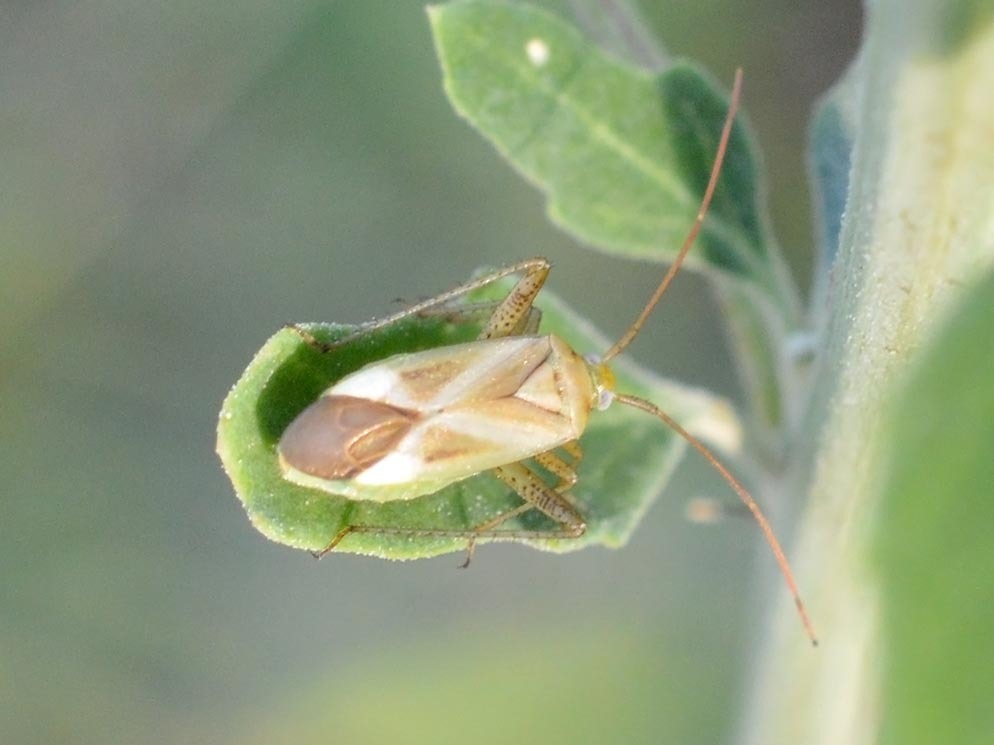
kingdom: Animalia
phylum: Arthropoda
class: Insecta
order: Hemiptera
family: Miridae
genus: Adelphocoris
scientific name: Adelphocoris lineolatus
